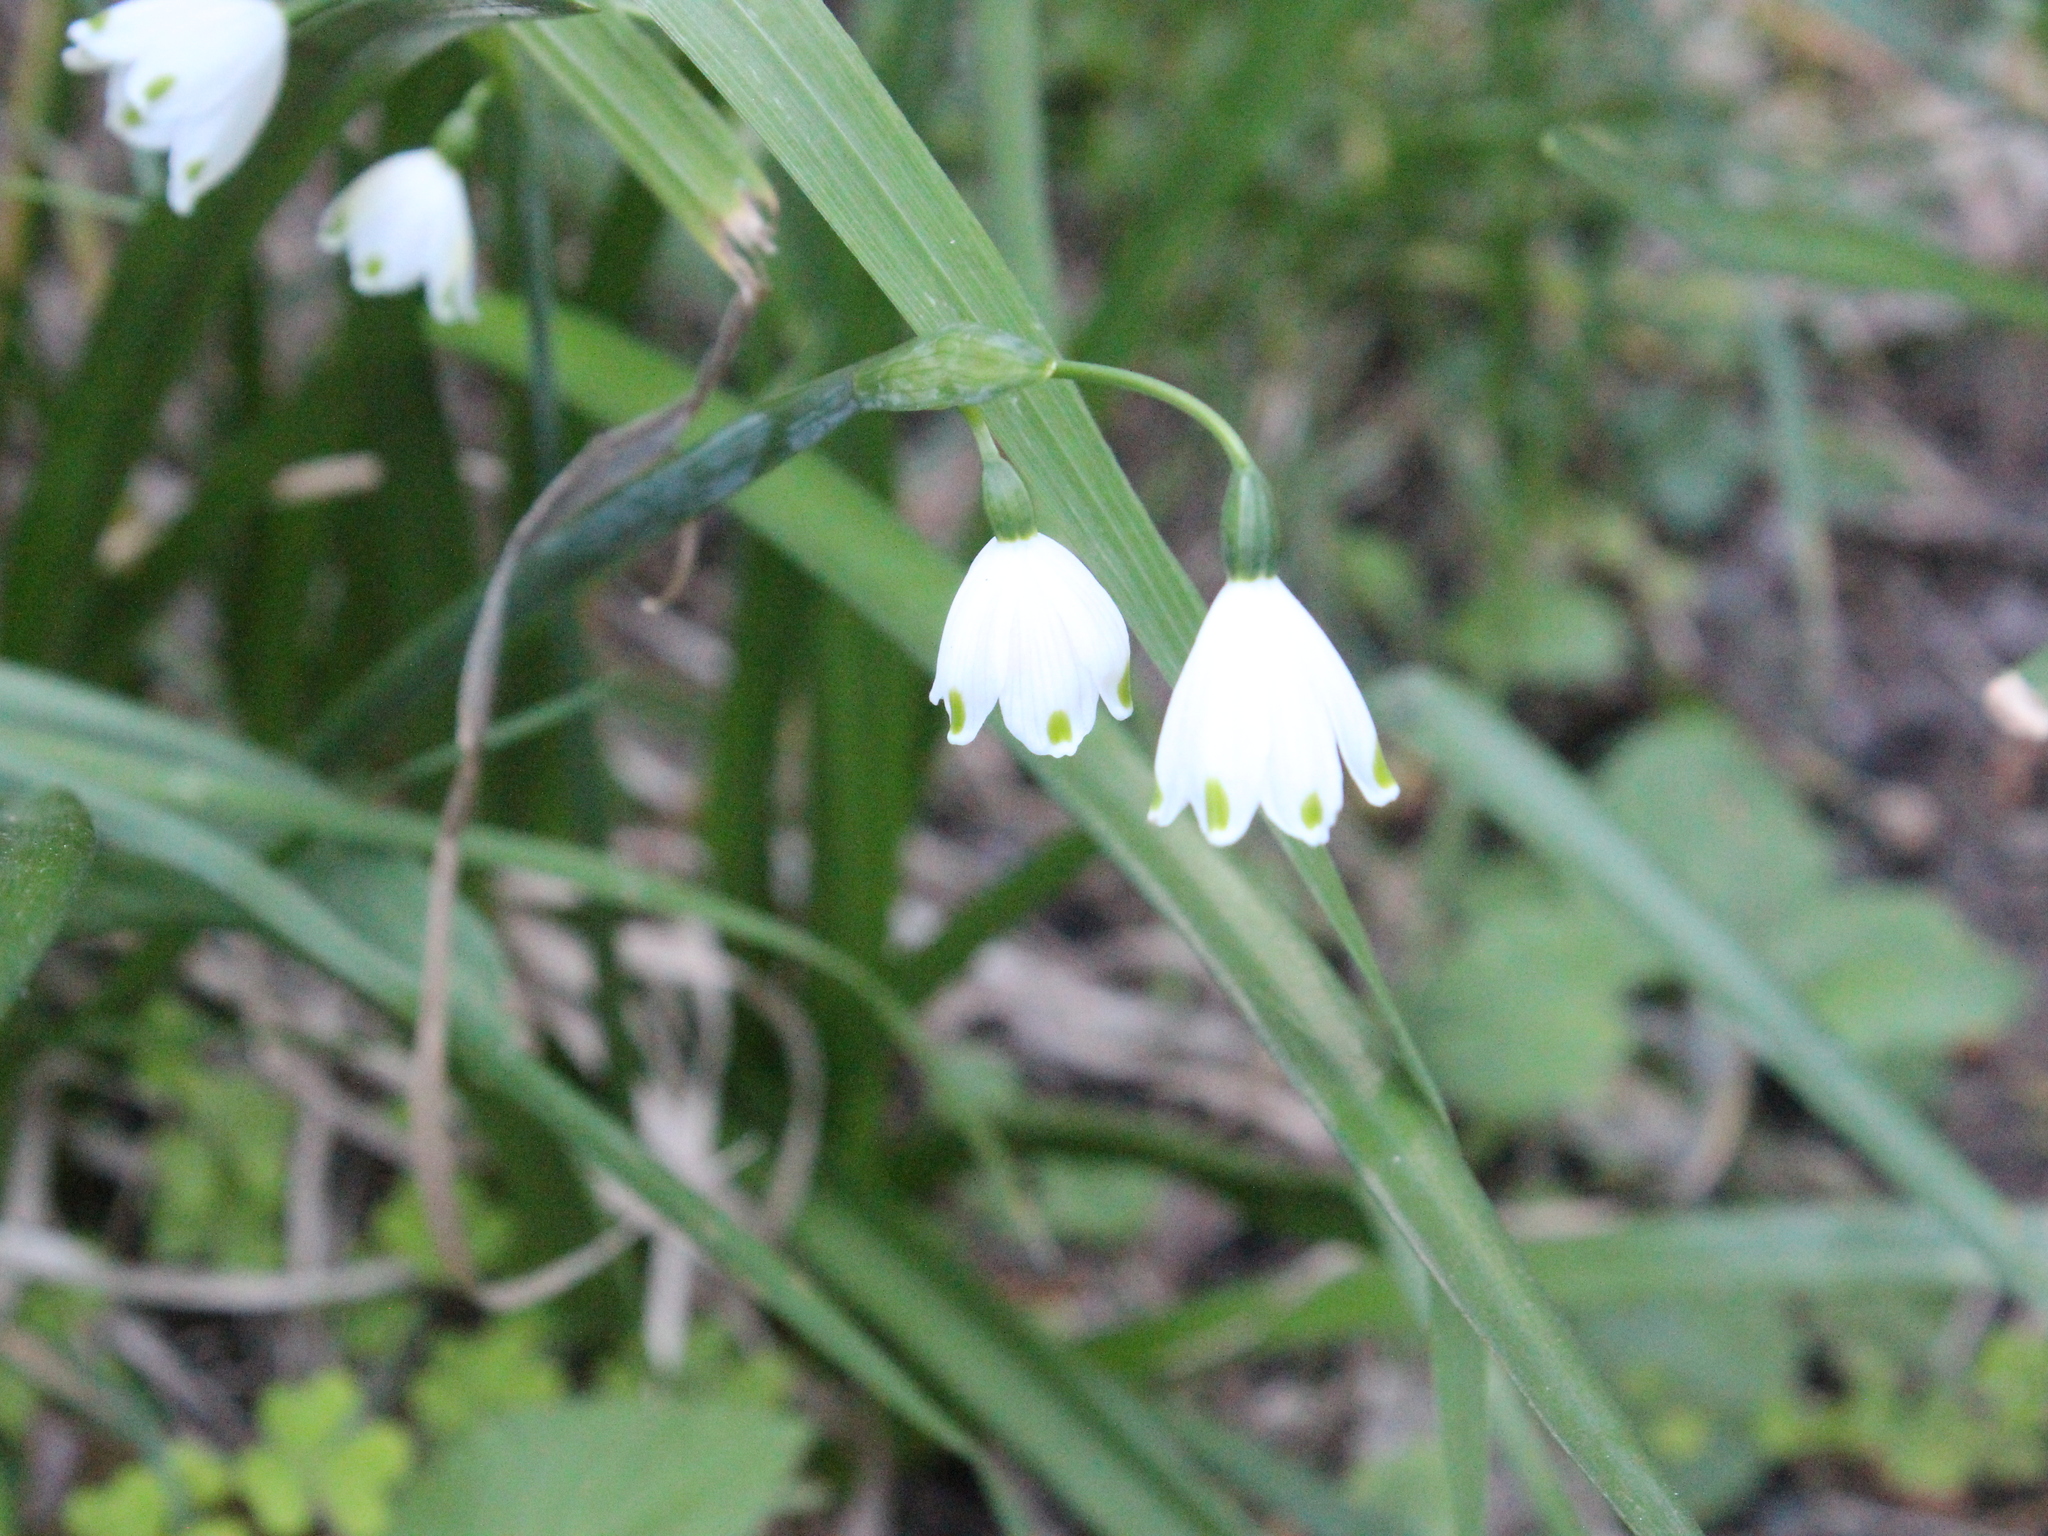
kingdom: Plantae
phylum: Tracheophyta
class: Liliopsida
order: Asparagales
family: Amaryllidaceae
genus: Leucojum
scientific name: Leucojum aestivum
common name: Summer snowflake
